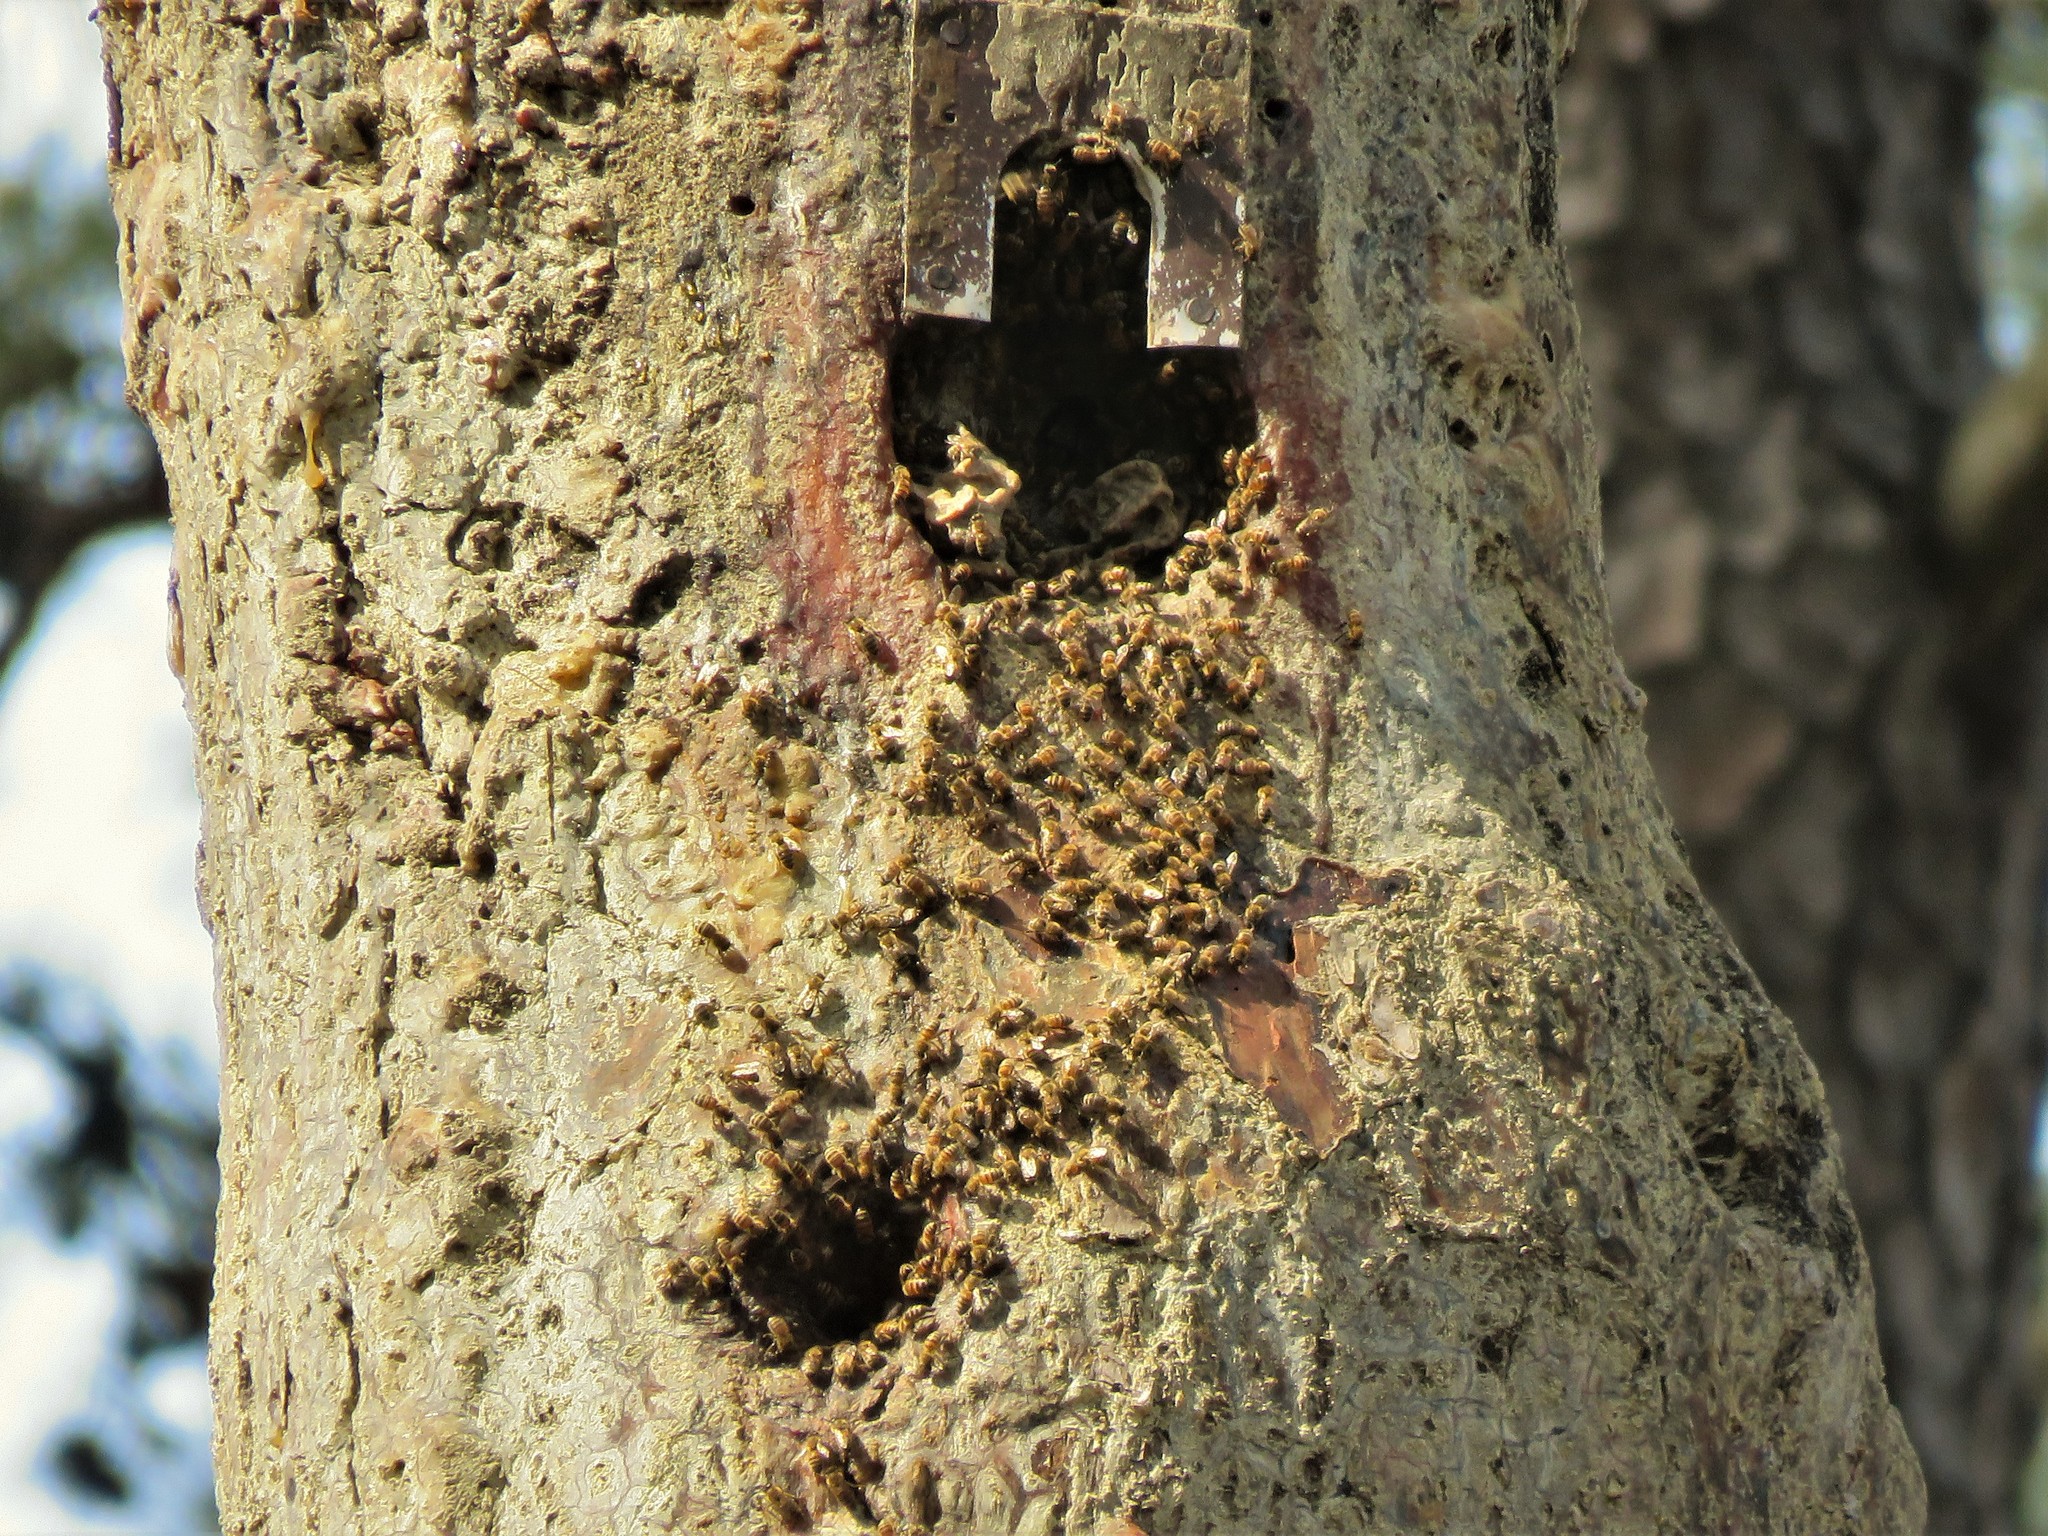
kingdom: Animalia
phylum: Arthropoda
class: Insecta
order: Hymenoptera
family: Apidae
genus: Apis
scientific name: Apis mellifera
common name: Honey bee
